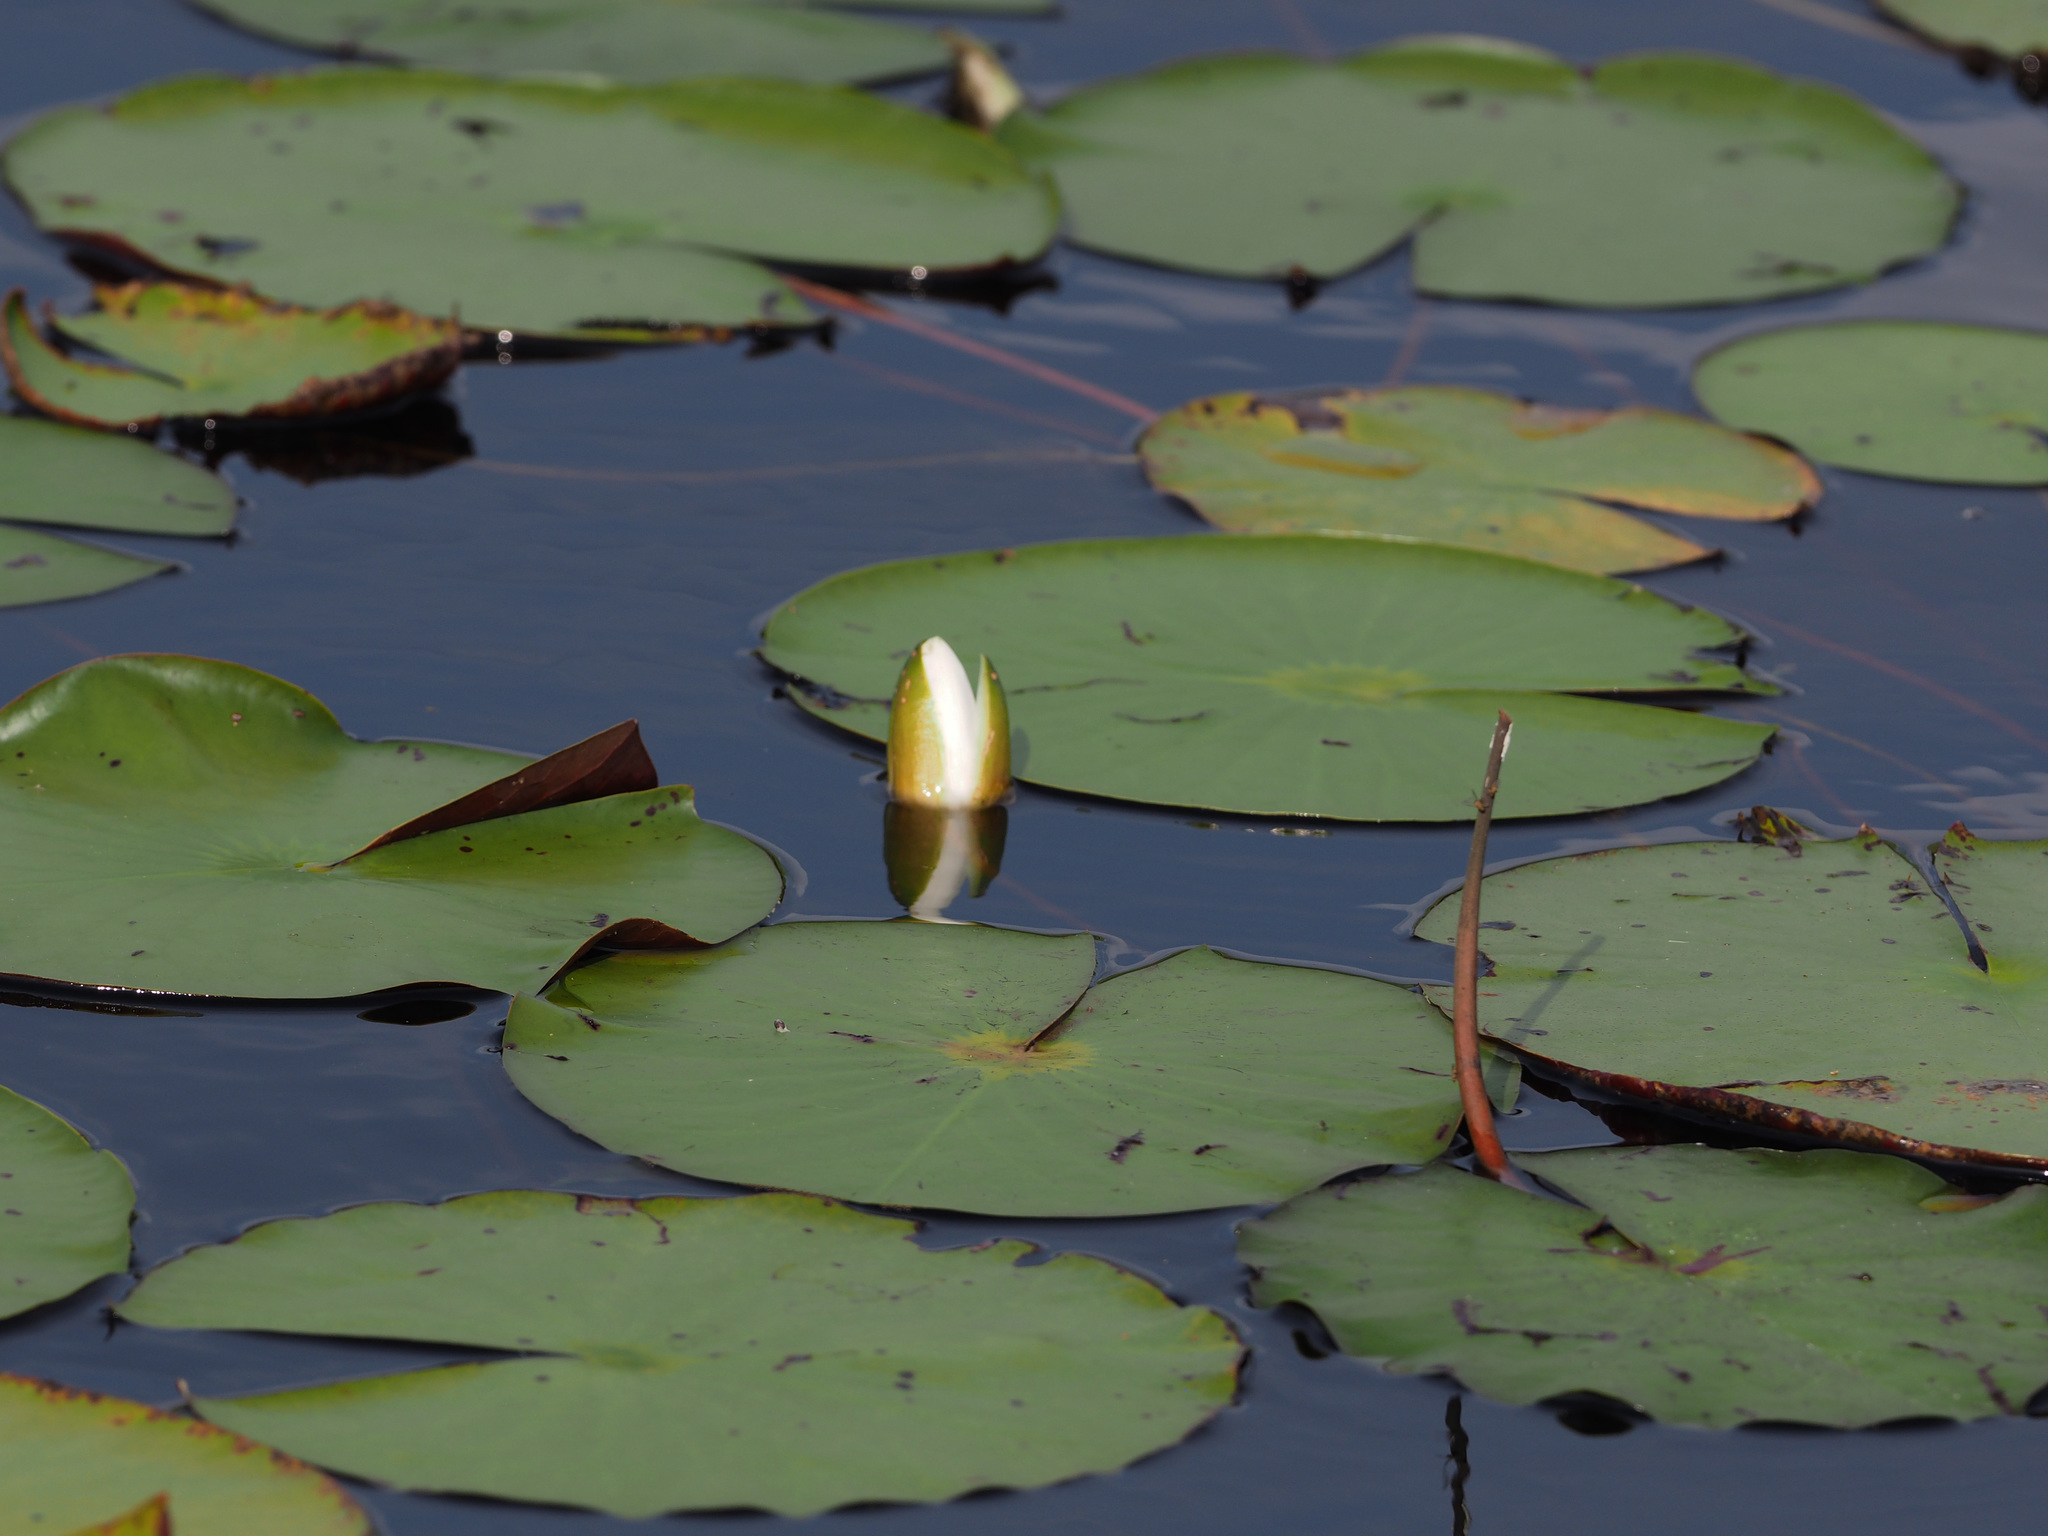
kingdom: Plantae
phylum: Tracheophyta
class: Magnoliopsida
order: Nymphaeales
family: Nymphaeaceae
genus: Nymphaea
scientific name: Nymphaea odorata
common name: Fragrant water-lily
